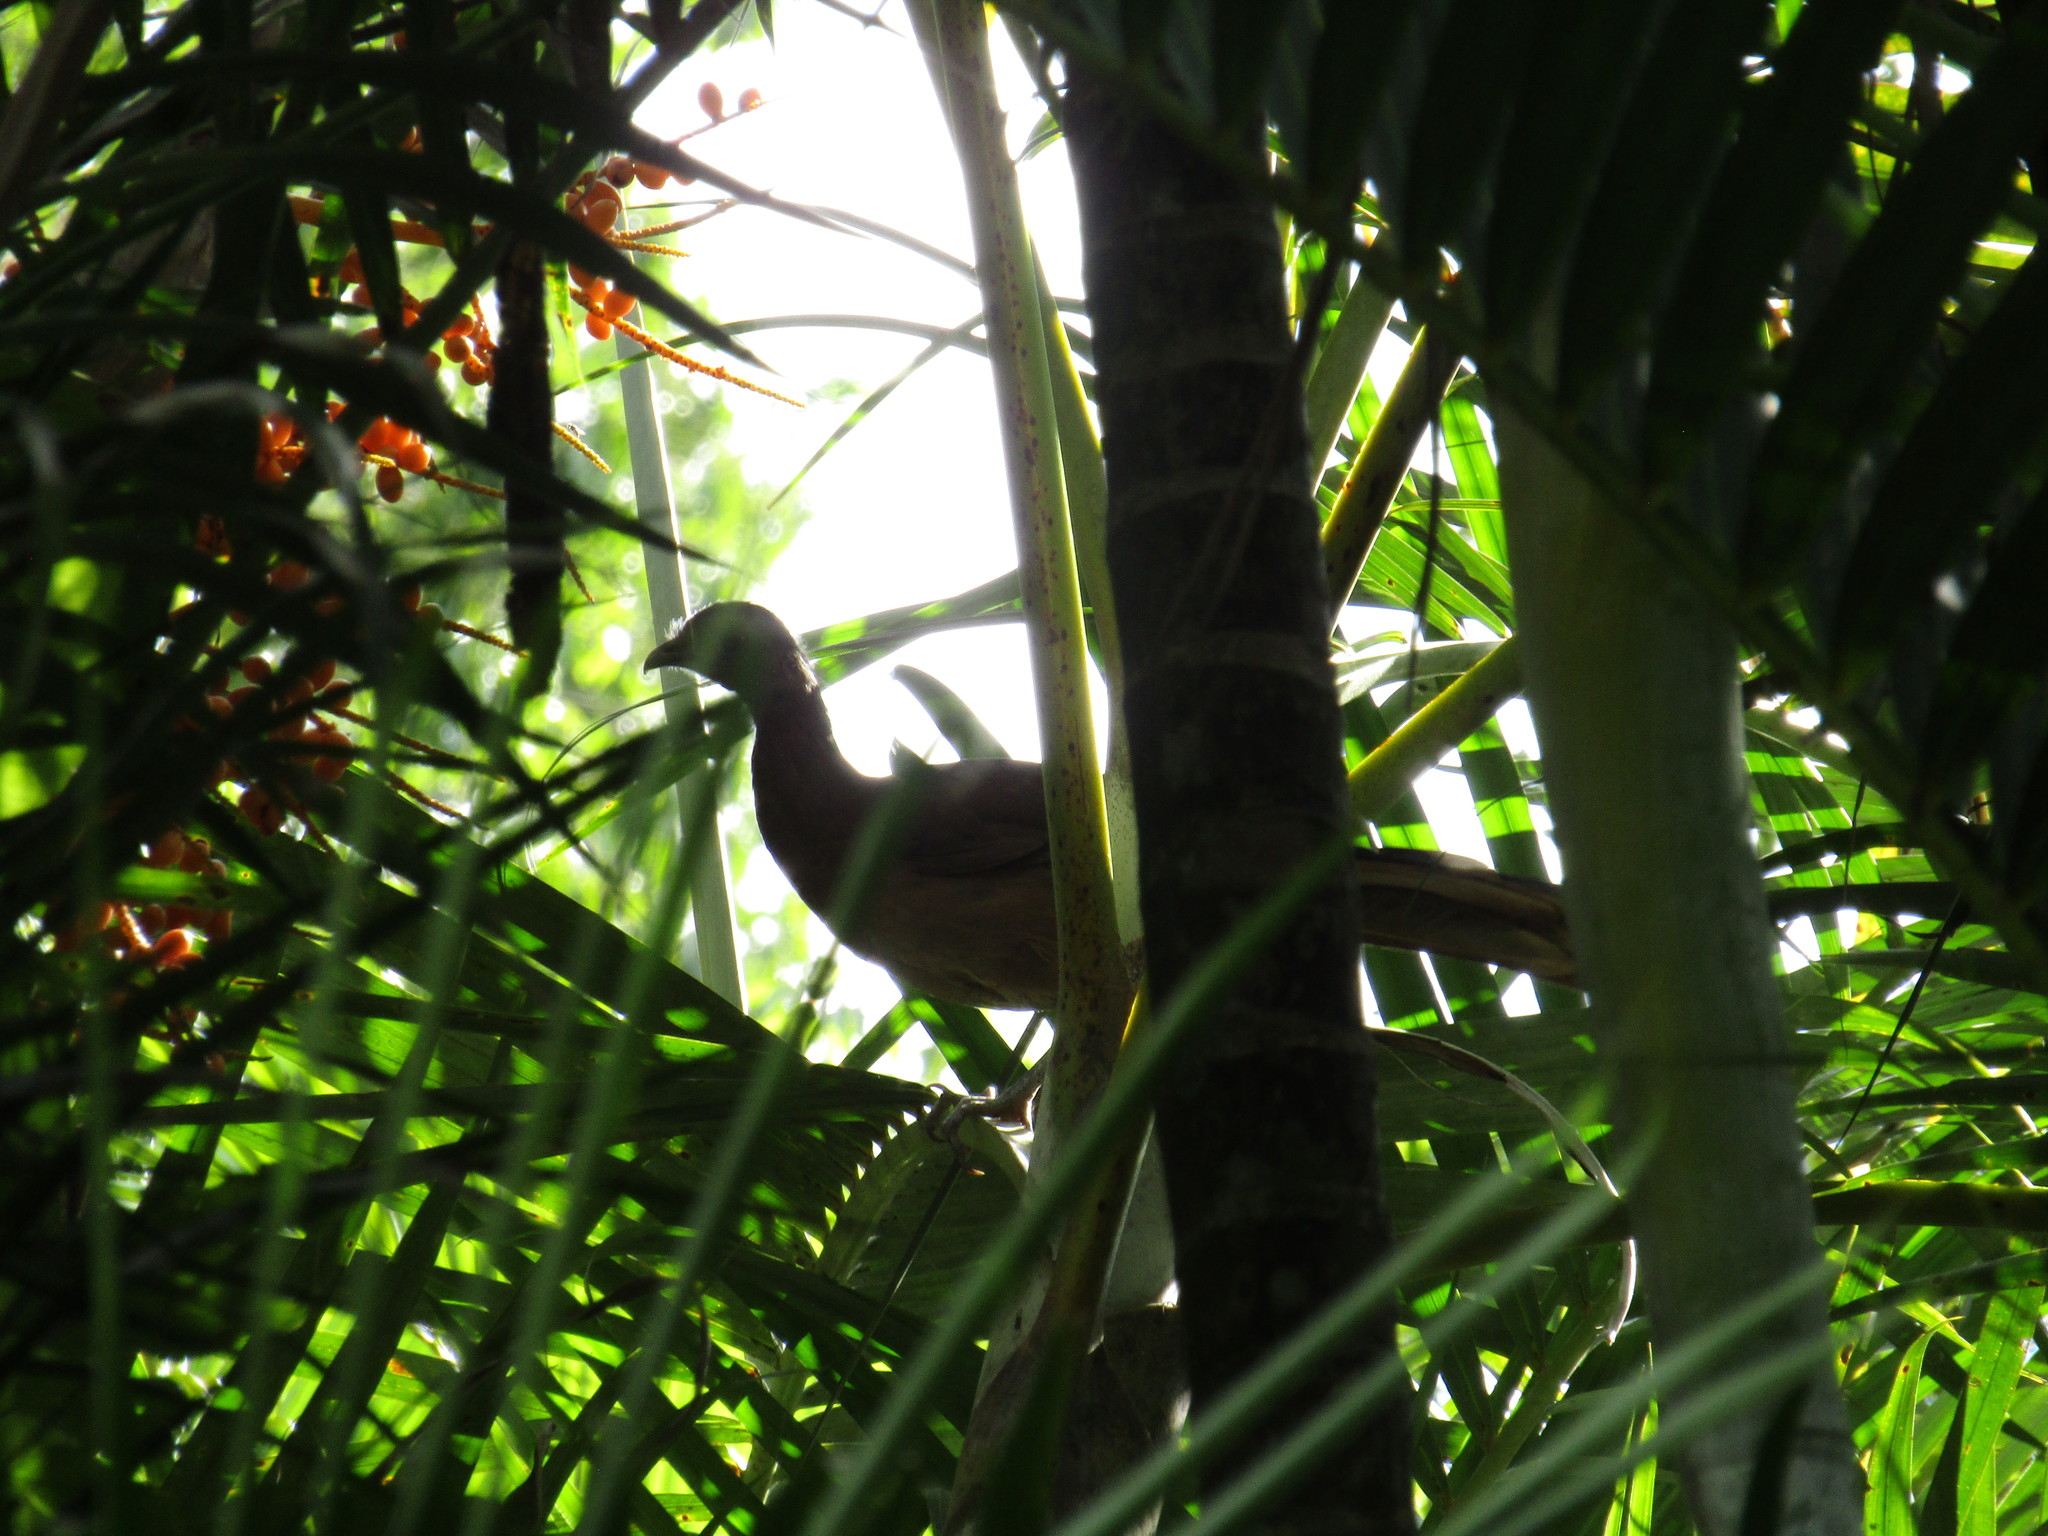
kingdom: Animalia
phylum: Chordata
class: Aves
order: Galliformes
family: Cracidae
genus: Ortalis
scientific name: Ortalis vetula
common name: Plain chachalaca
